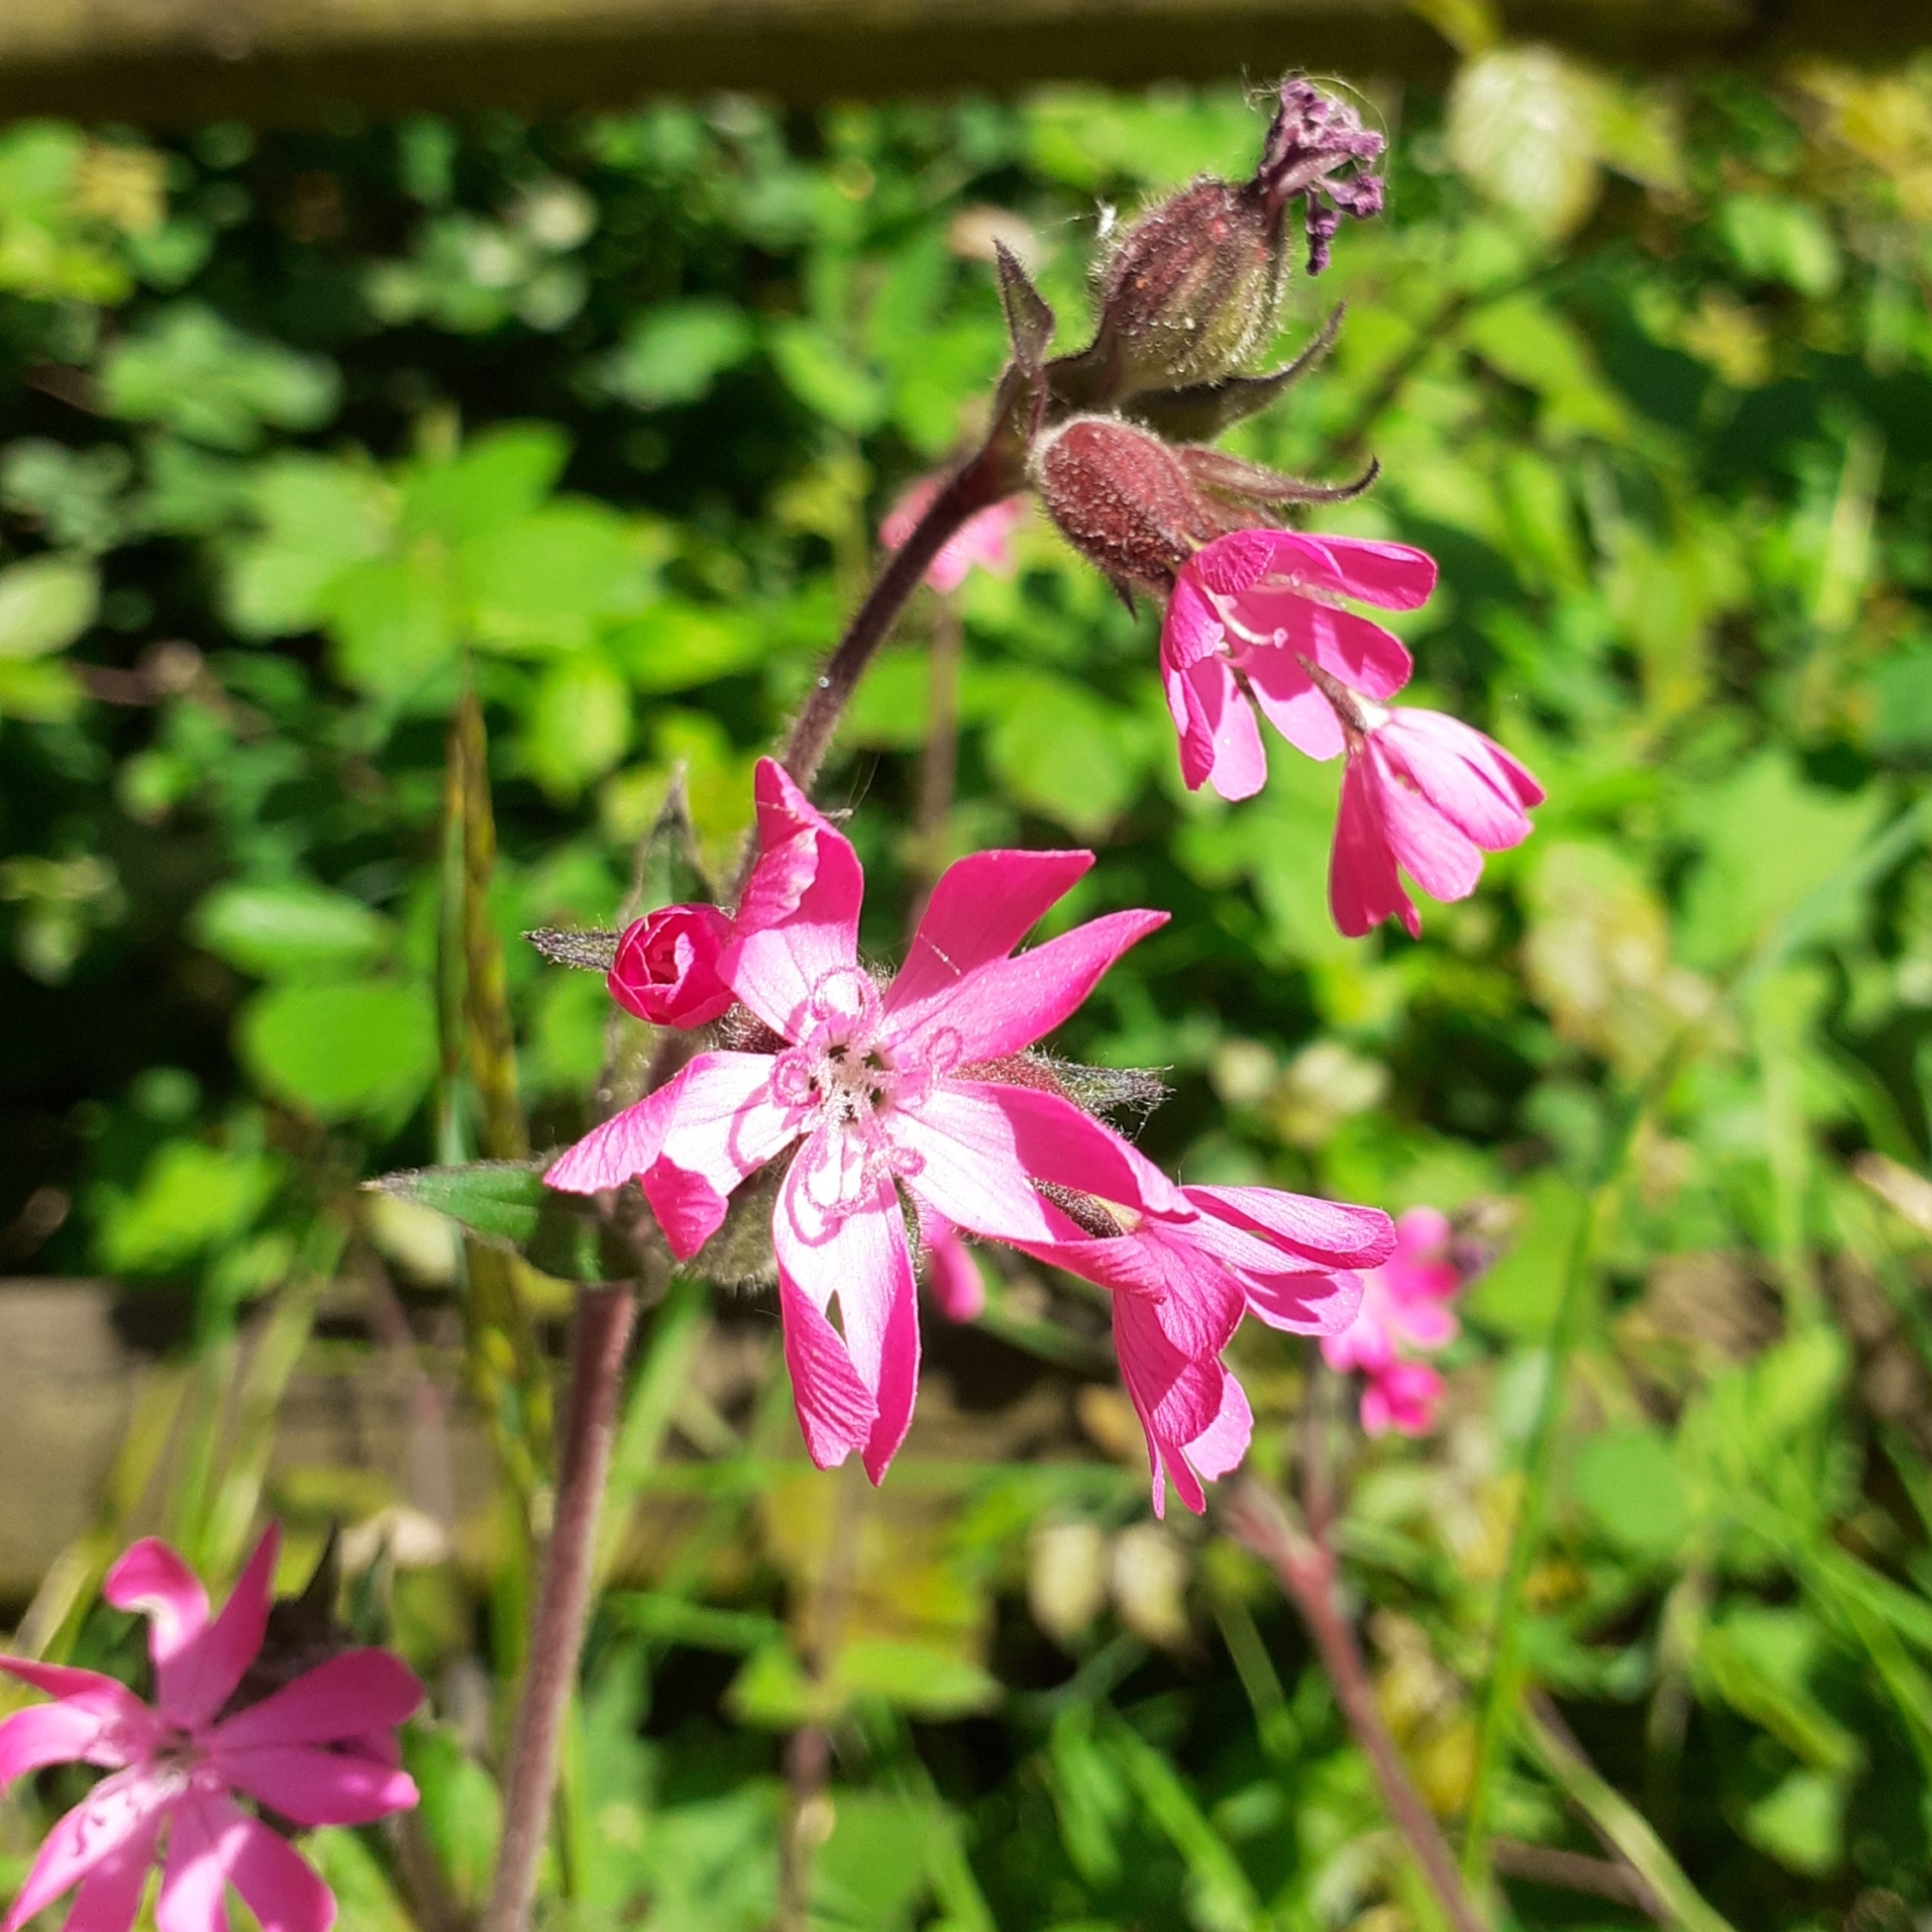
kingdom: Plantae
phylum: Tracheophyta
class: Magnoliopsida
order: Caryophyllales
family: Caryophyllaceae
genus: Silene
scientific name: Silene dioica
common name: Red campion
